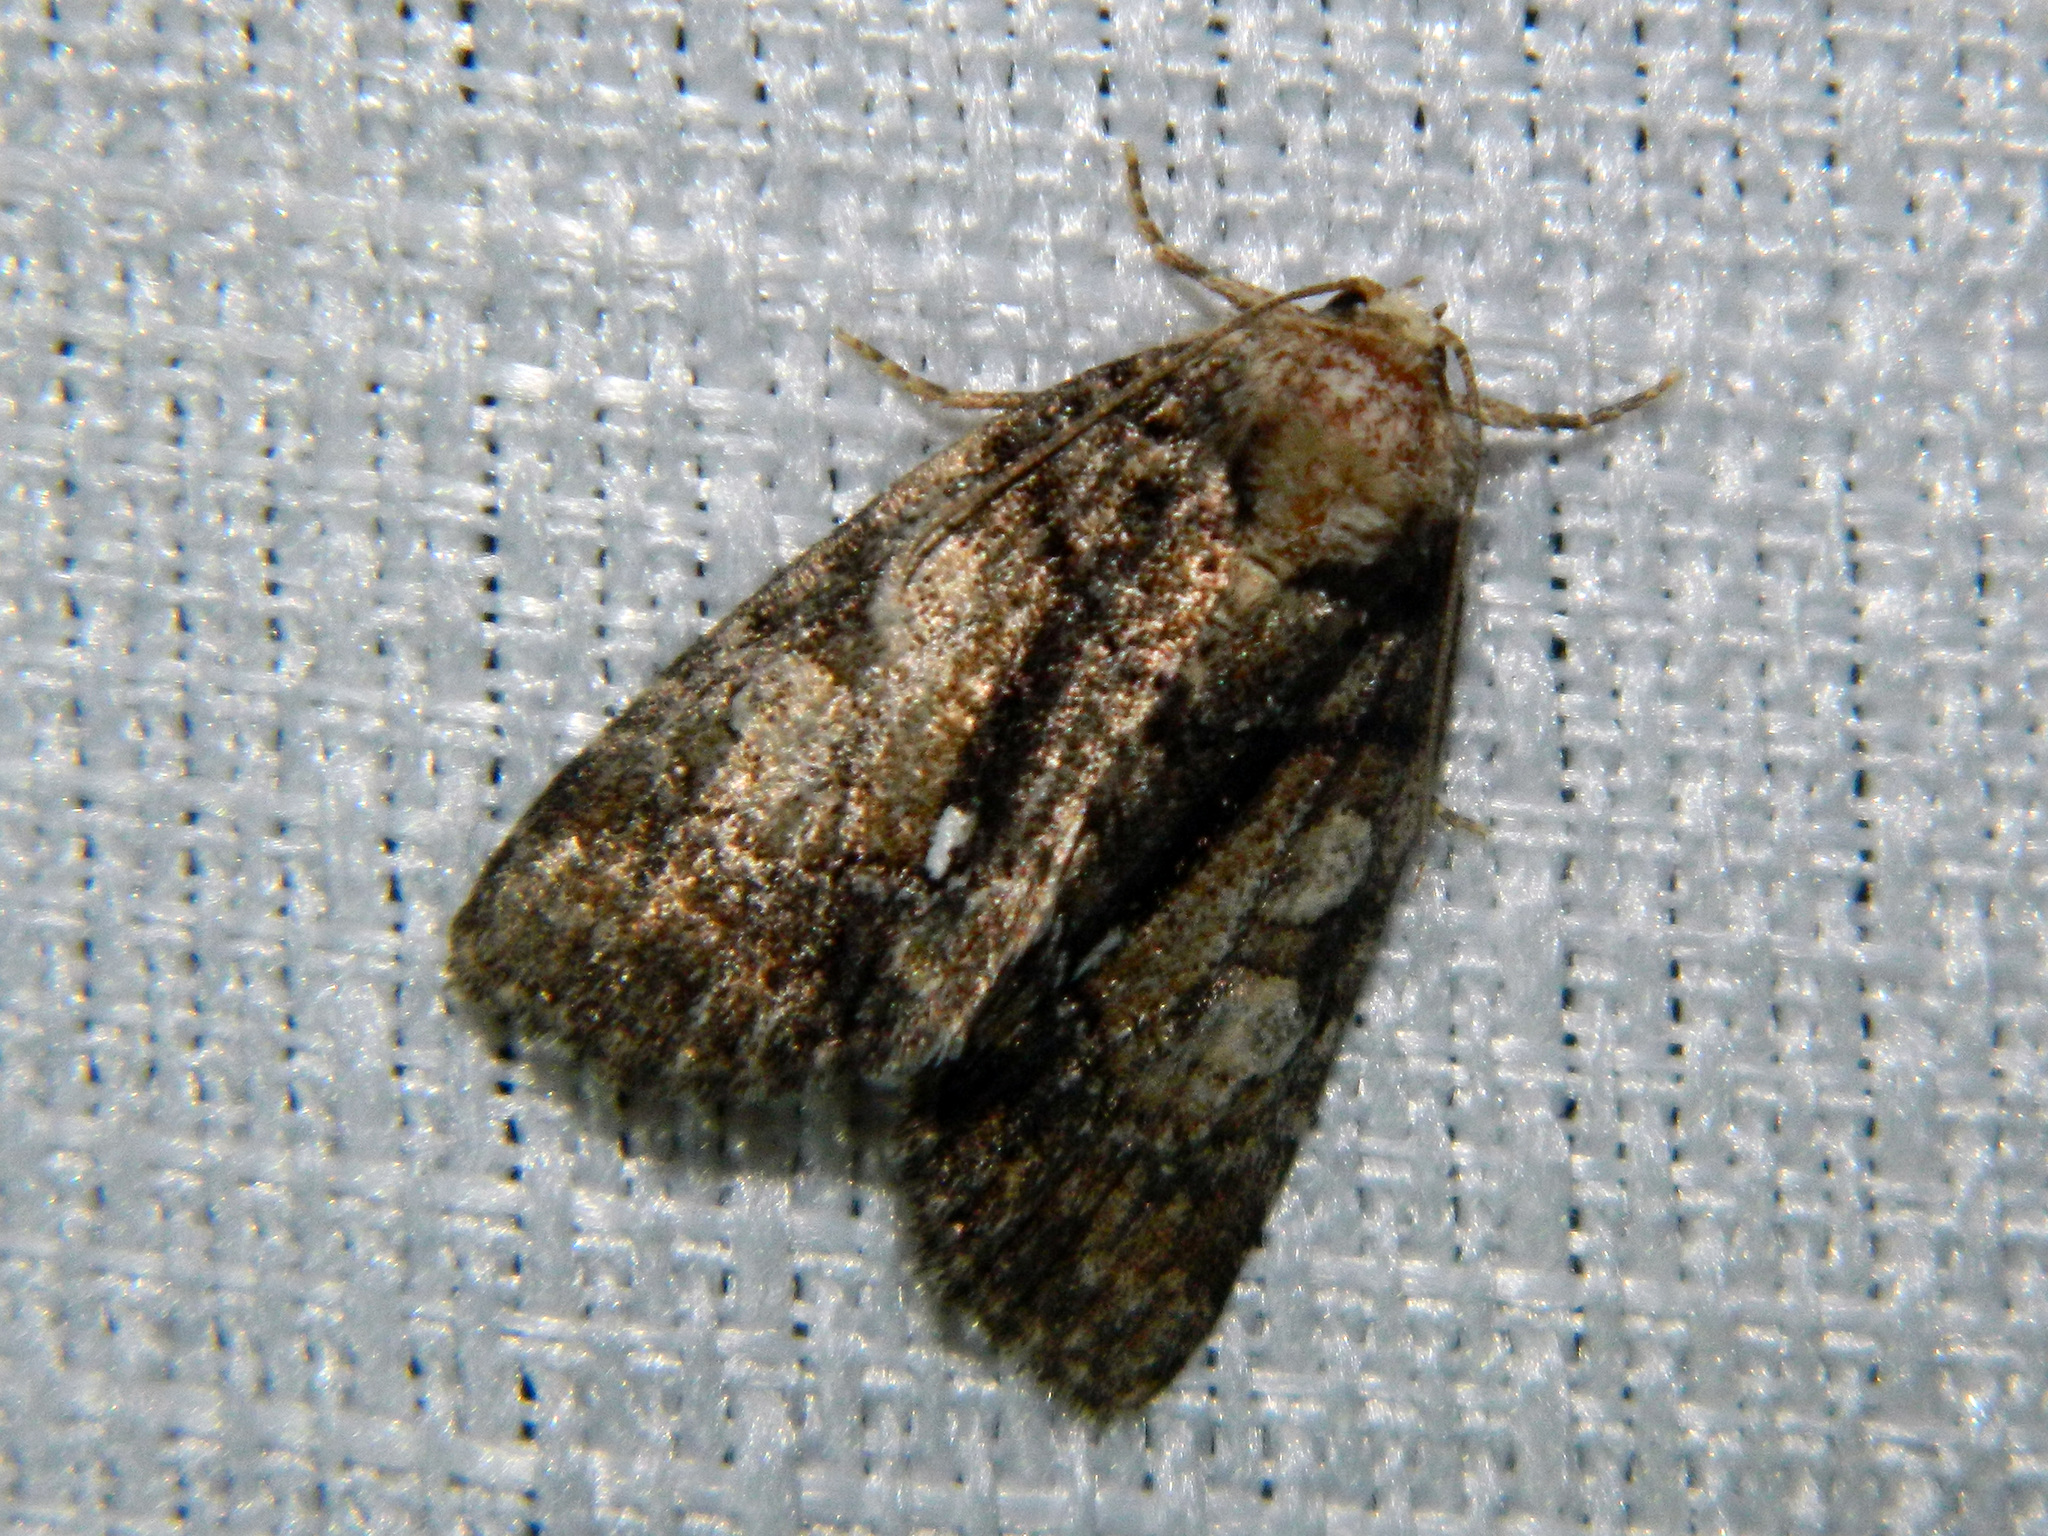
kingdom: Animalia
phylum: Arthropoda
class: Insecta
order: Lepidoptera
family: Noctuidae
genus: Chytonix
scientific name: Chytonix palliatricula
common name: Cloaked marvel
